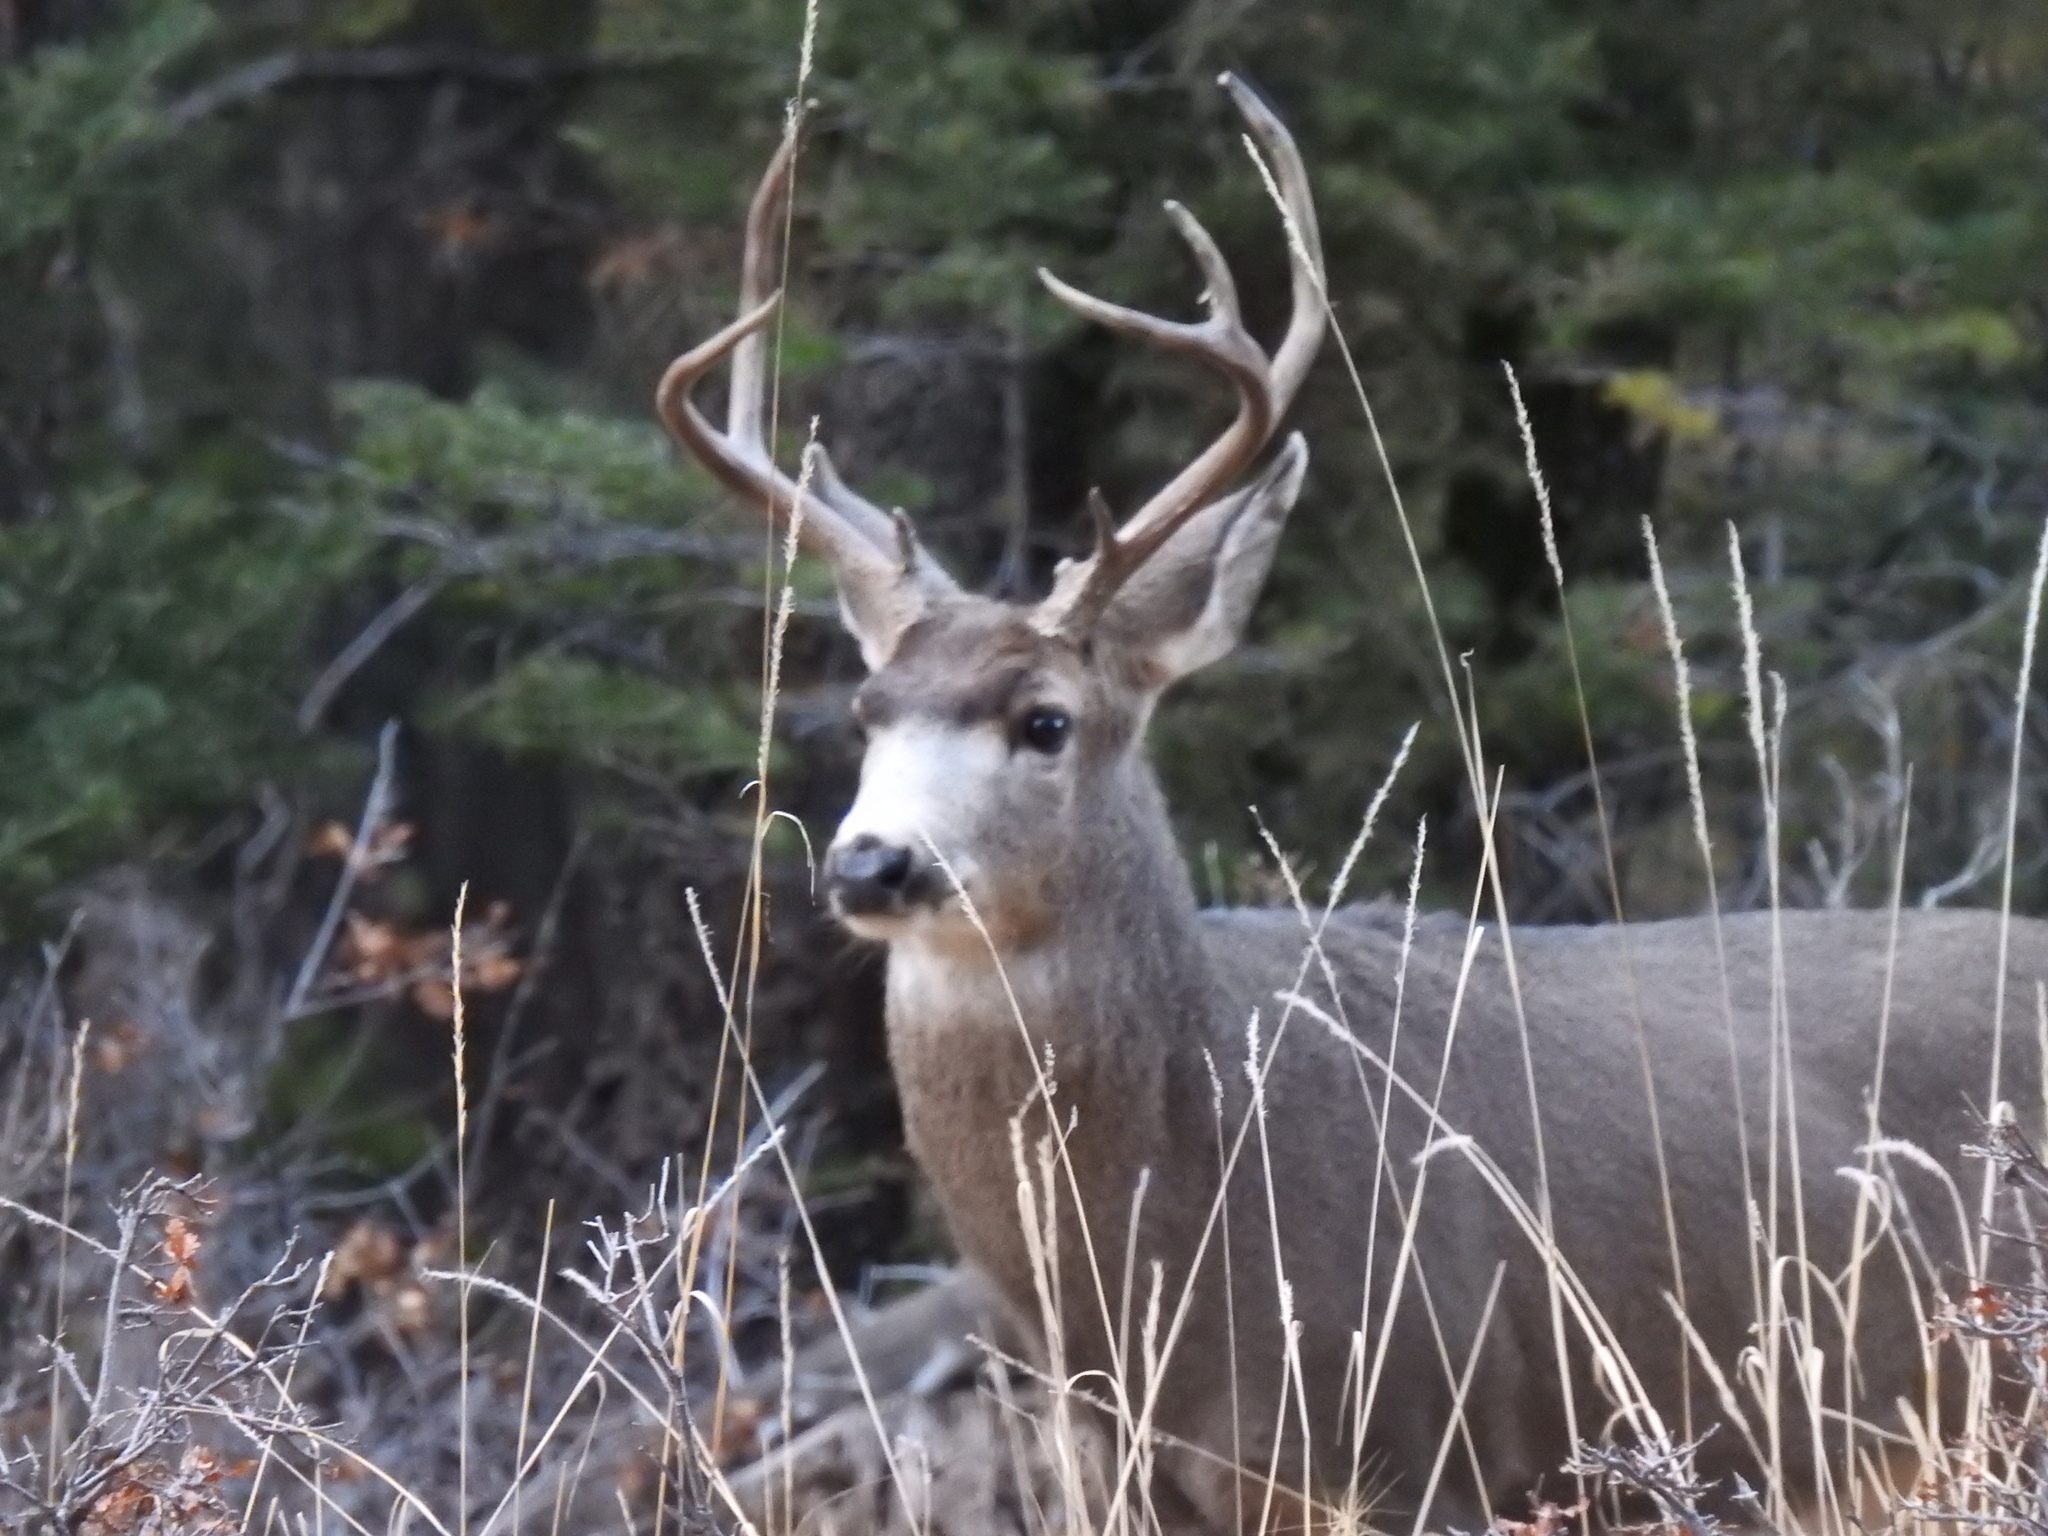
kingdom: Animalia
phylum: Chordata
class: Mammalia
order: Artiodactyla
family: Cervidae
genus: Odocoileus
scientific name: Odocoileus hemionus
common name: Mule deer
